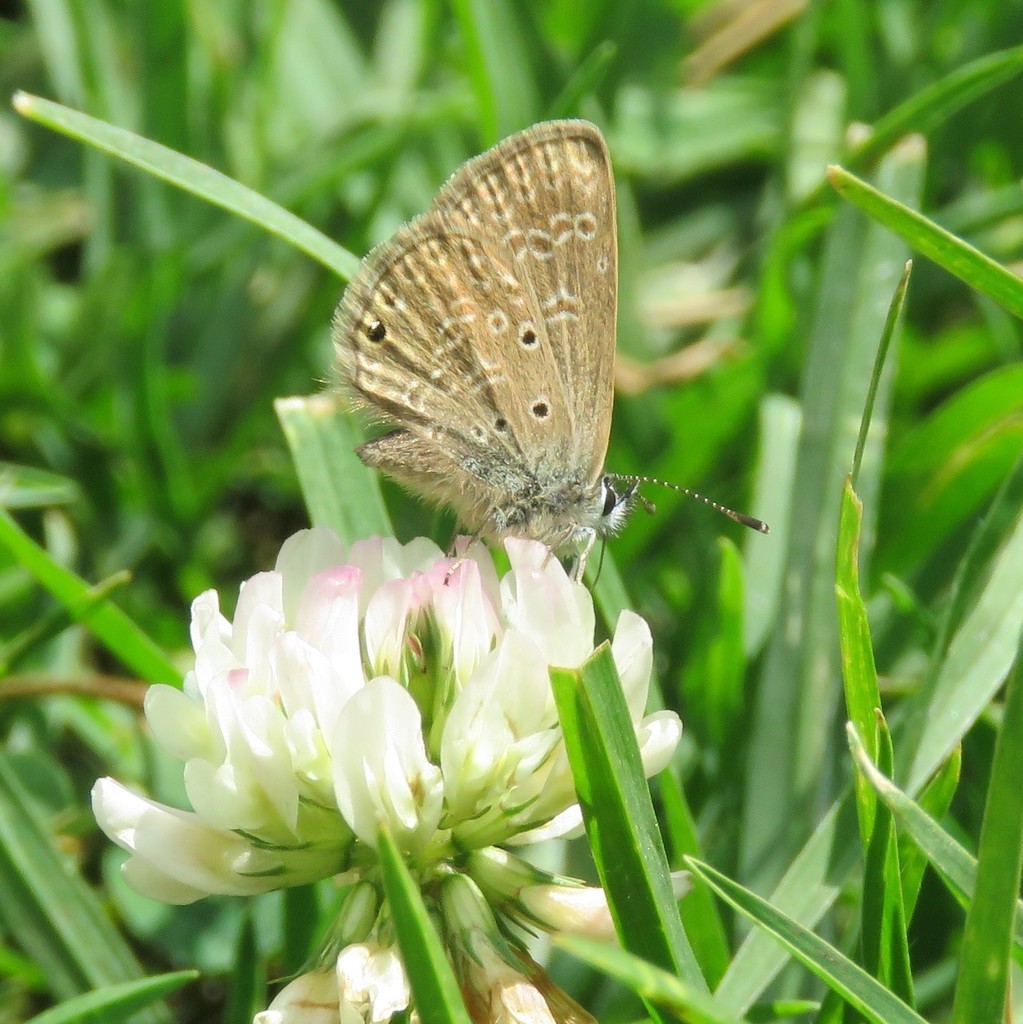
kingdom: Plantae
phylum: Tracheophyta
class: Magnoliopsida
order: Fabales
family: Fabaceae
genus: Trifolium
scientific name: Trifolium repens
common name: White clover
